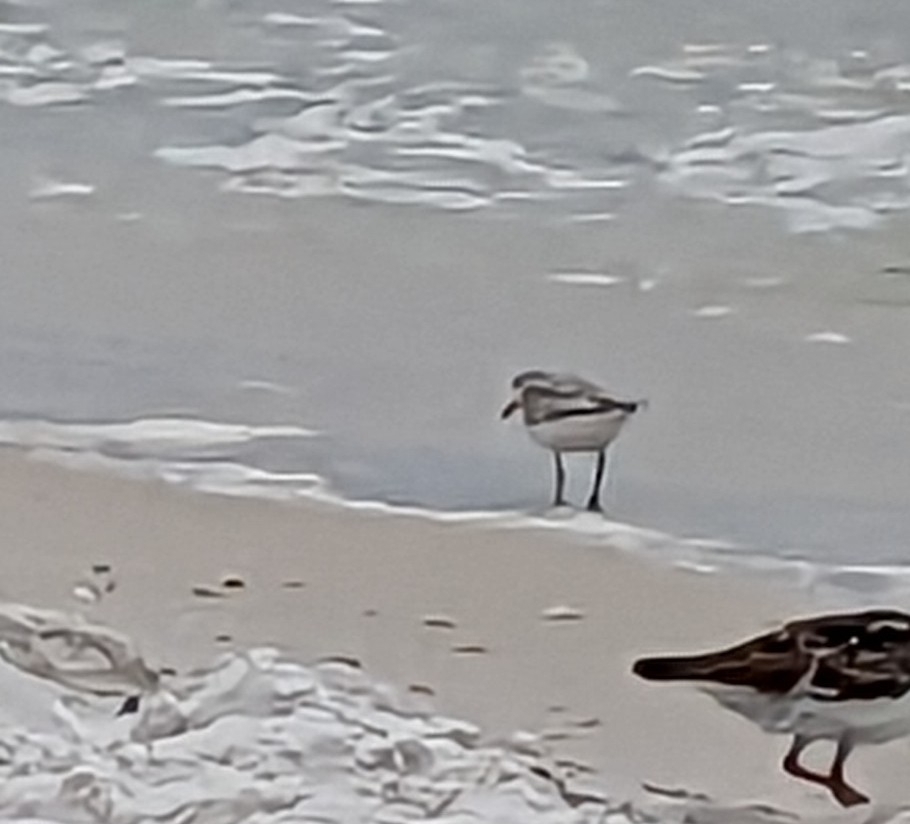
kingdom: Animalia
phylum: Chordata
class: Aves
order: Charadriiformes
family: Scolopacidae
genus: Calidris
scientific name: Calidris alba
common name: Sanderling
